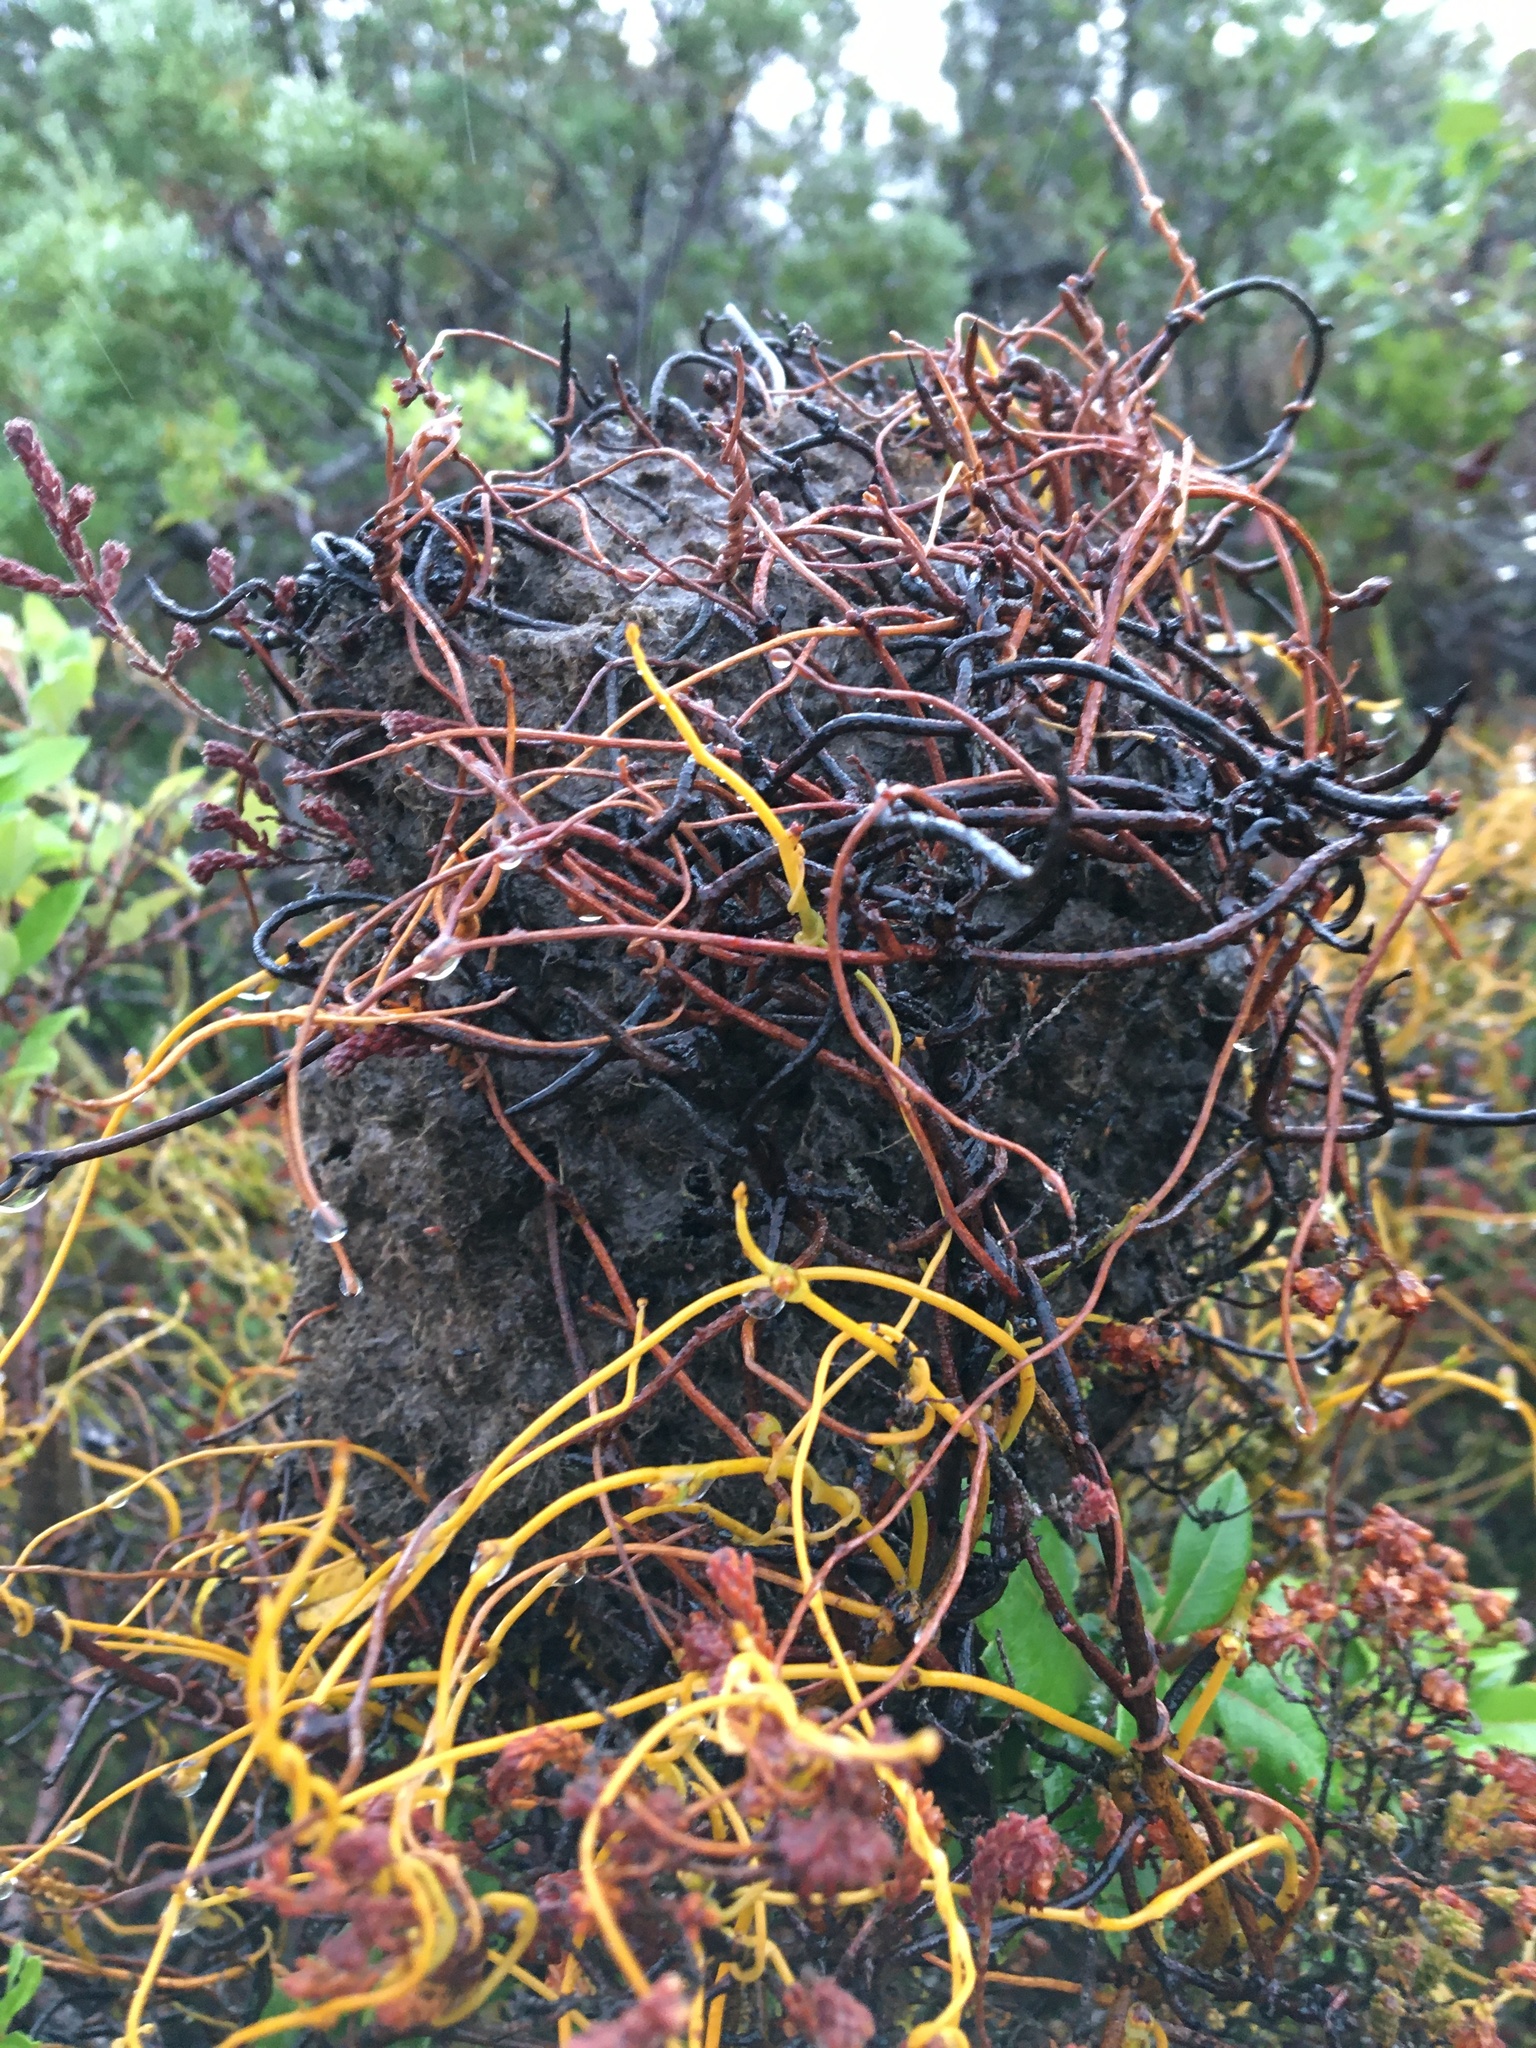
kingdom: Animalia
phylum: Arthropoda
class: Insecta
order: Hymenoptera
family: Formicidae
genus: Crematogaster
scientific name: Crematogaster peringueyi
